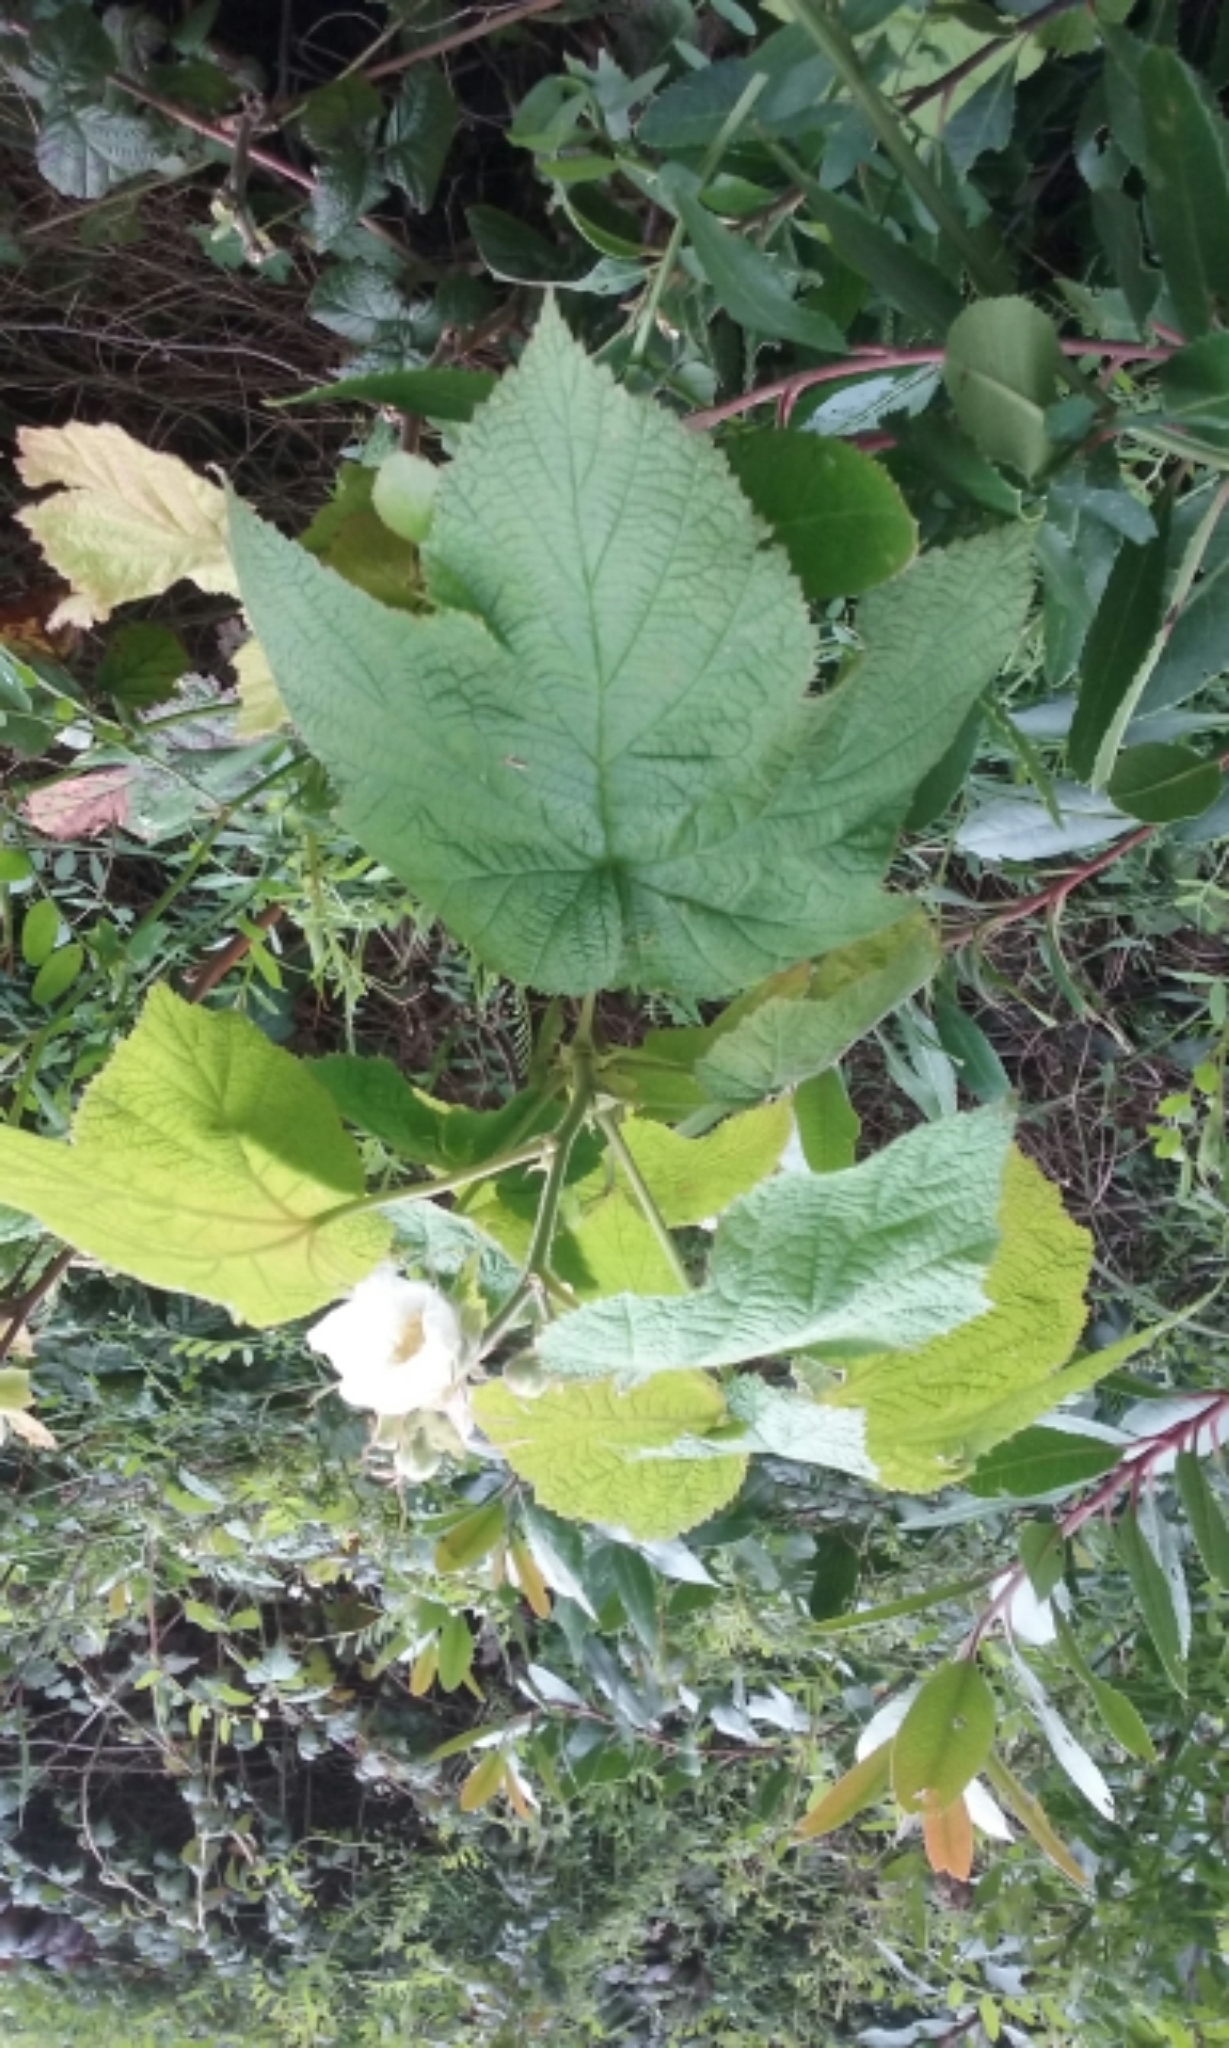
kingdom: Plantae
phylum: Tracheophyta
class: Magnoliopsida
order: Rosales
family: Rosaceae
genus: Rubus
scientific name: Rubus parviflorus
